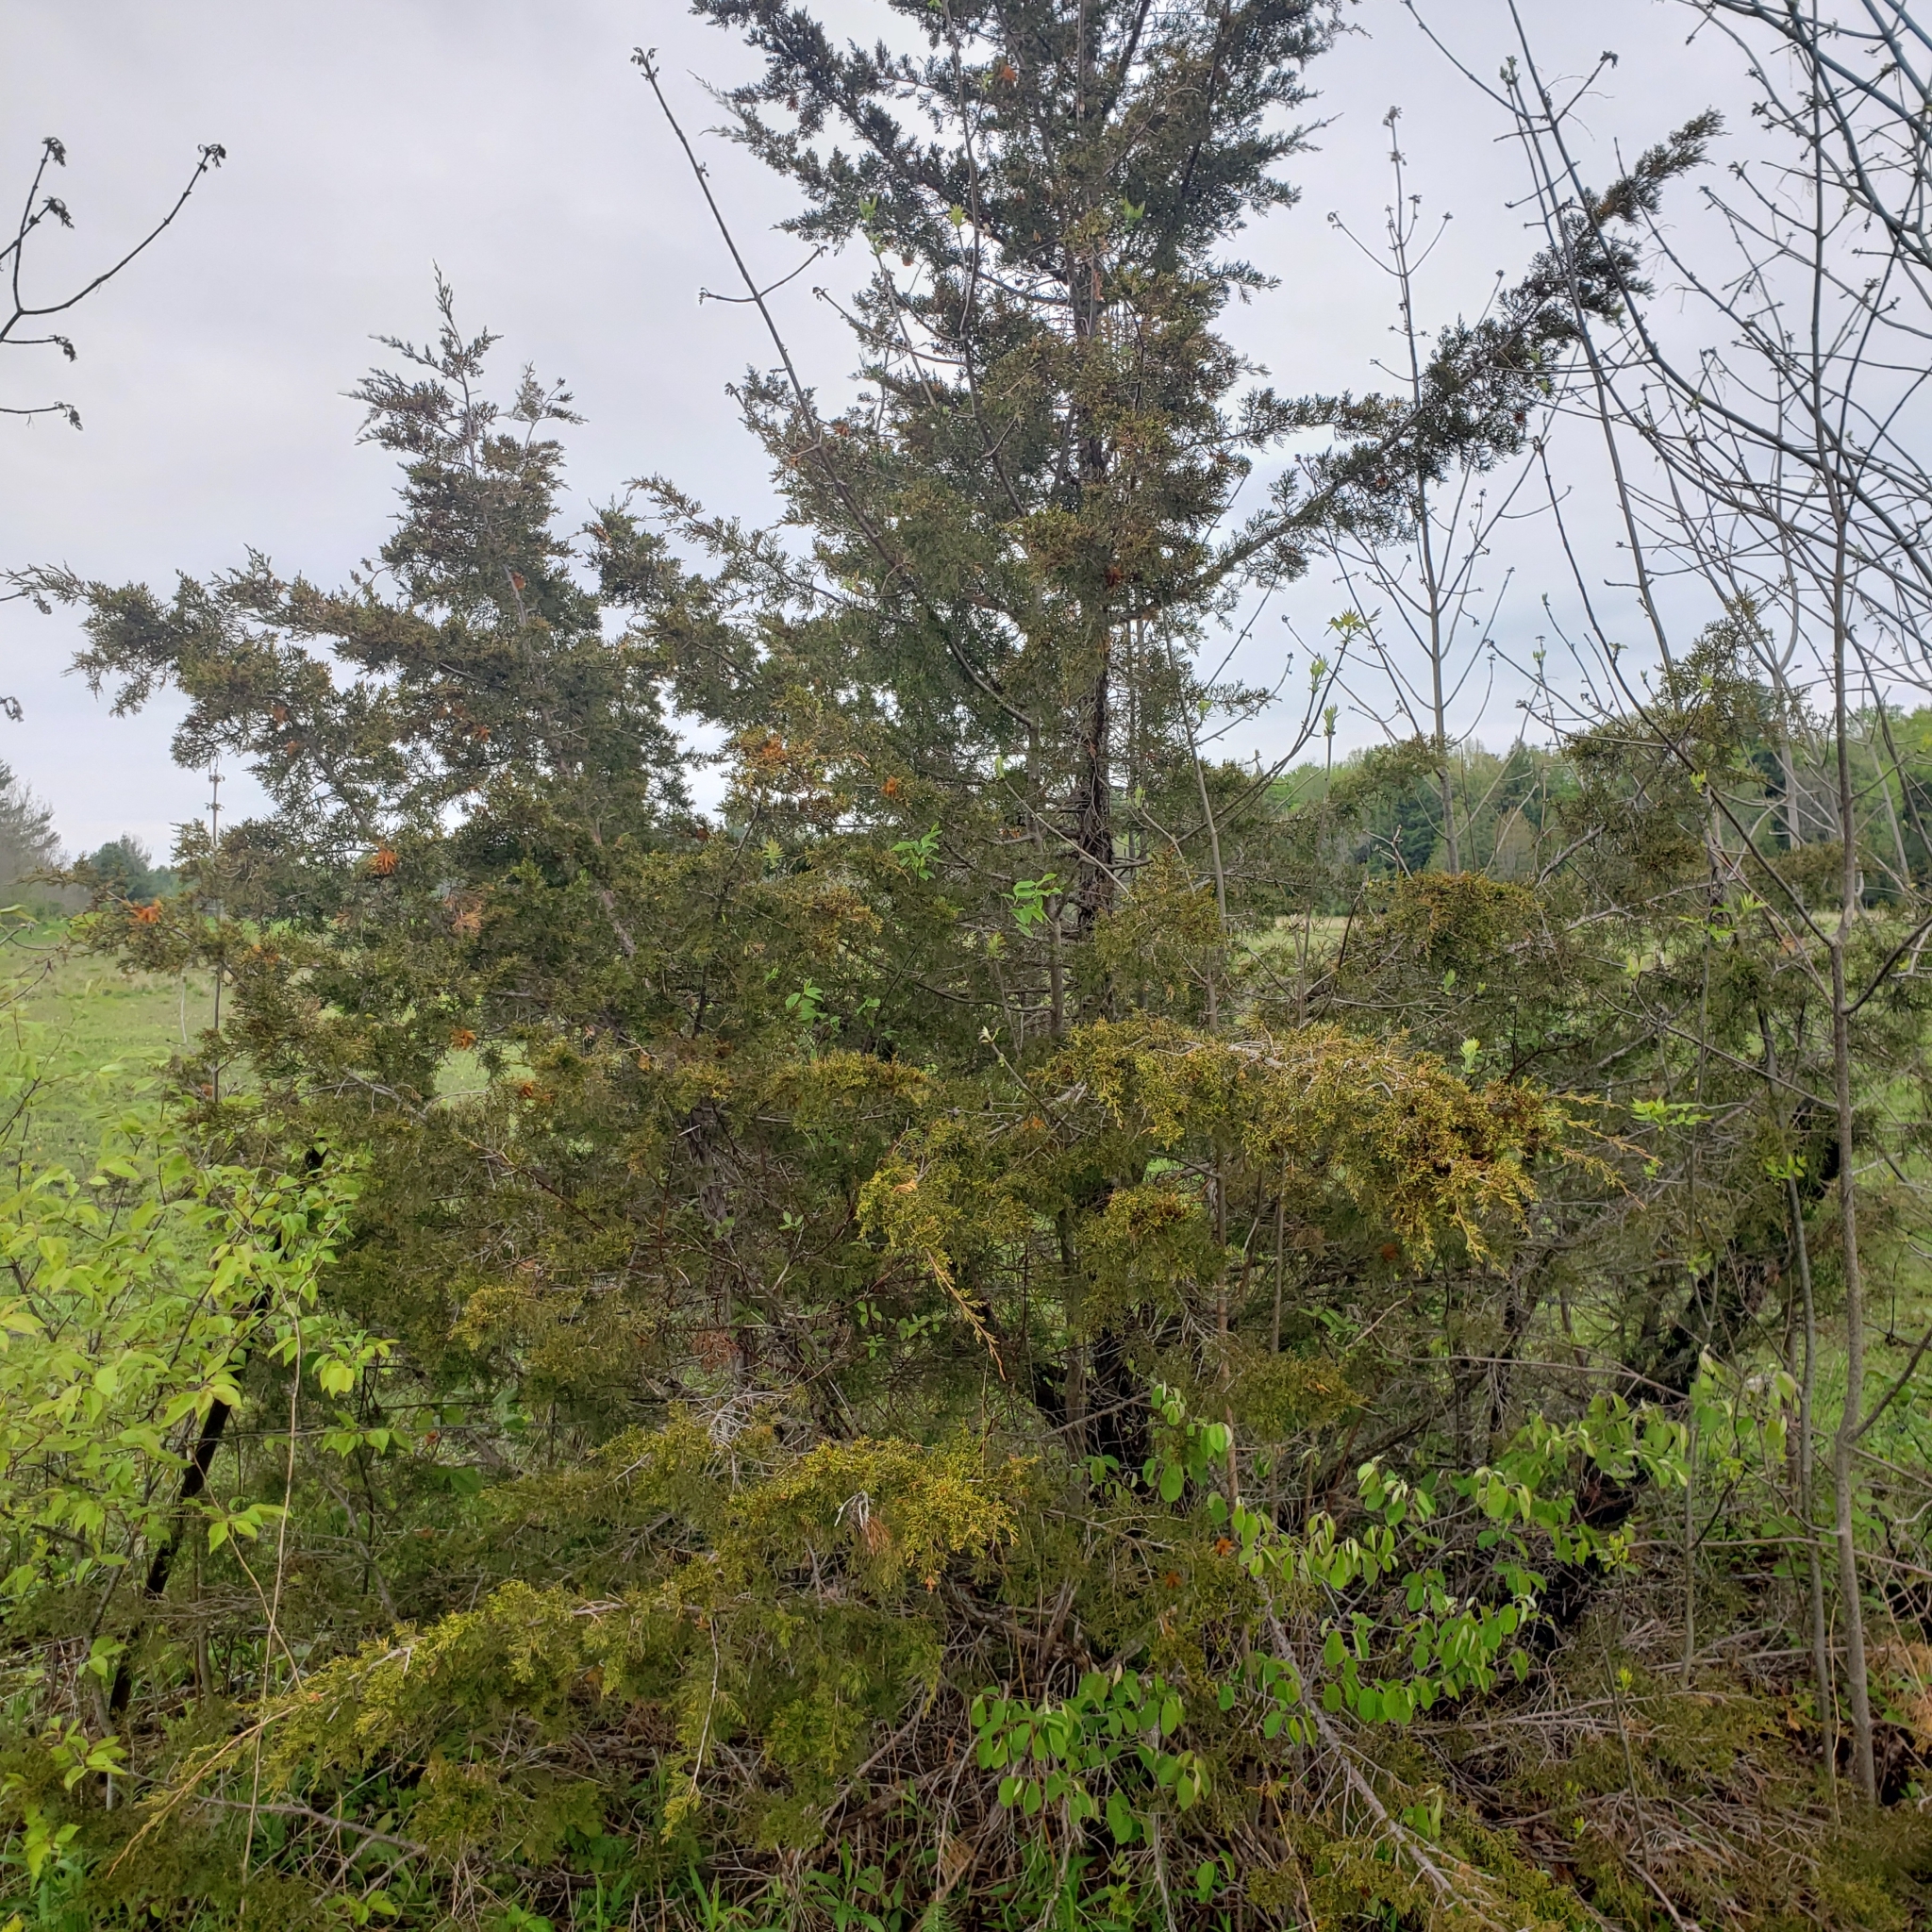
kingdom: Plantae
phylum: Tracheophyta
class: Pinopsida
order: Pinales
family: Cupressaceae
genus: Juniperus
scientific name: Juniperus virginiana
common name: Red juniper
